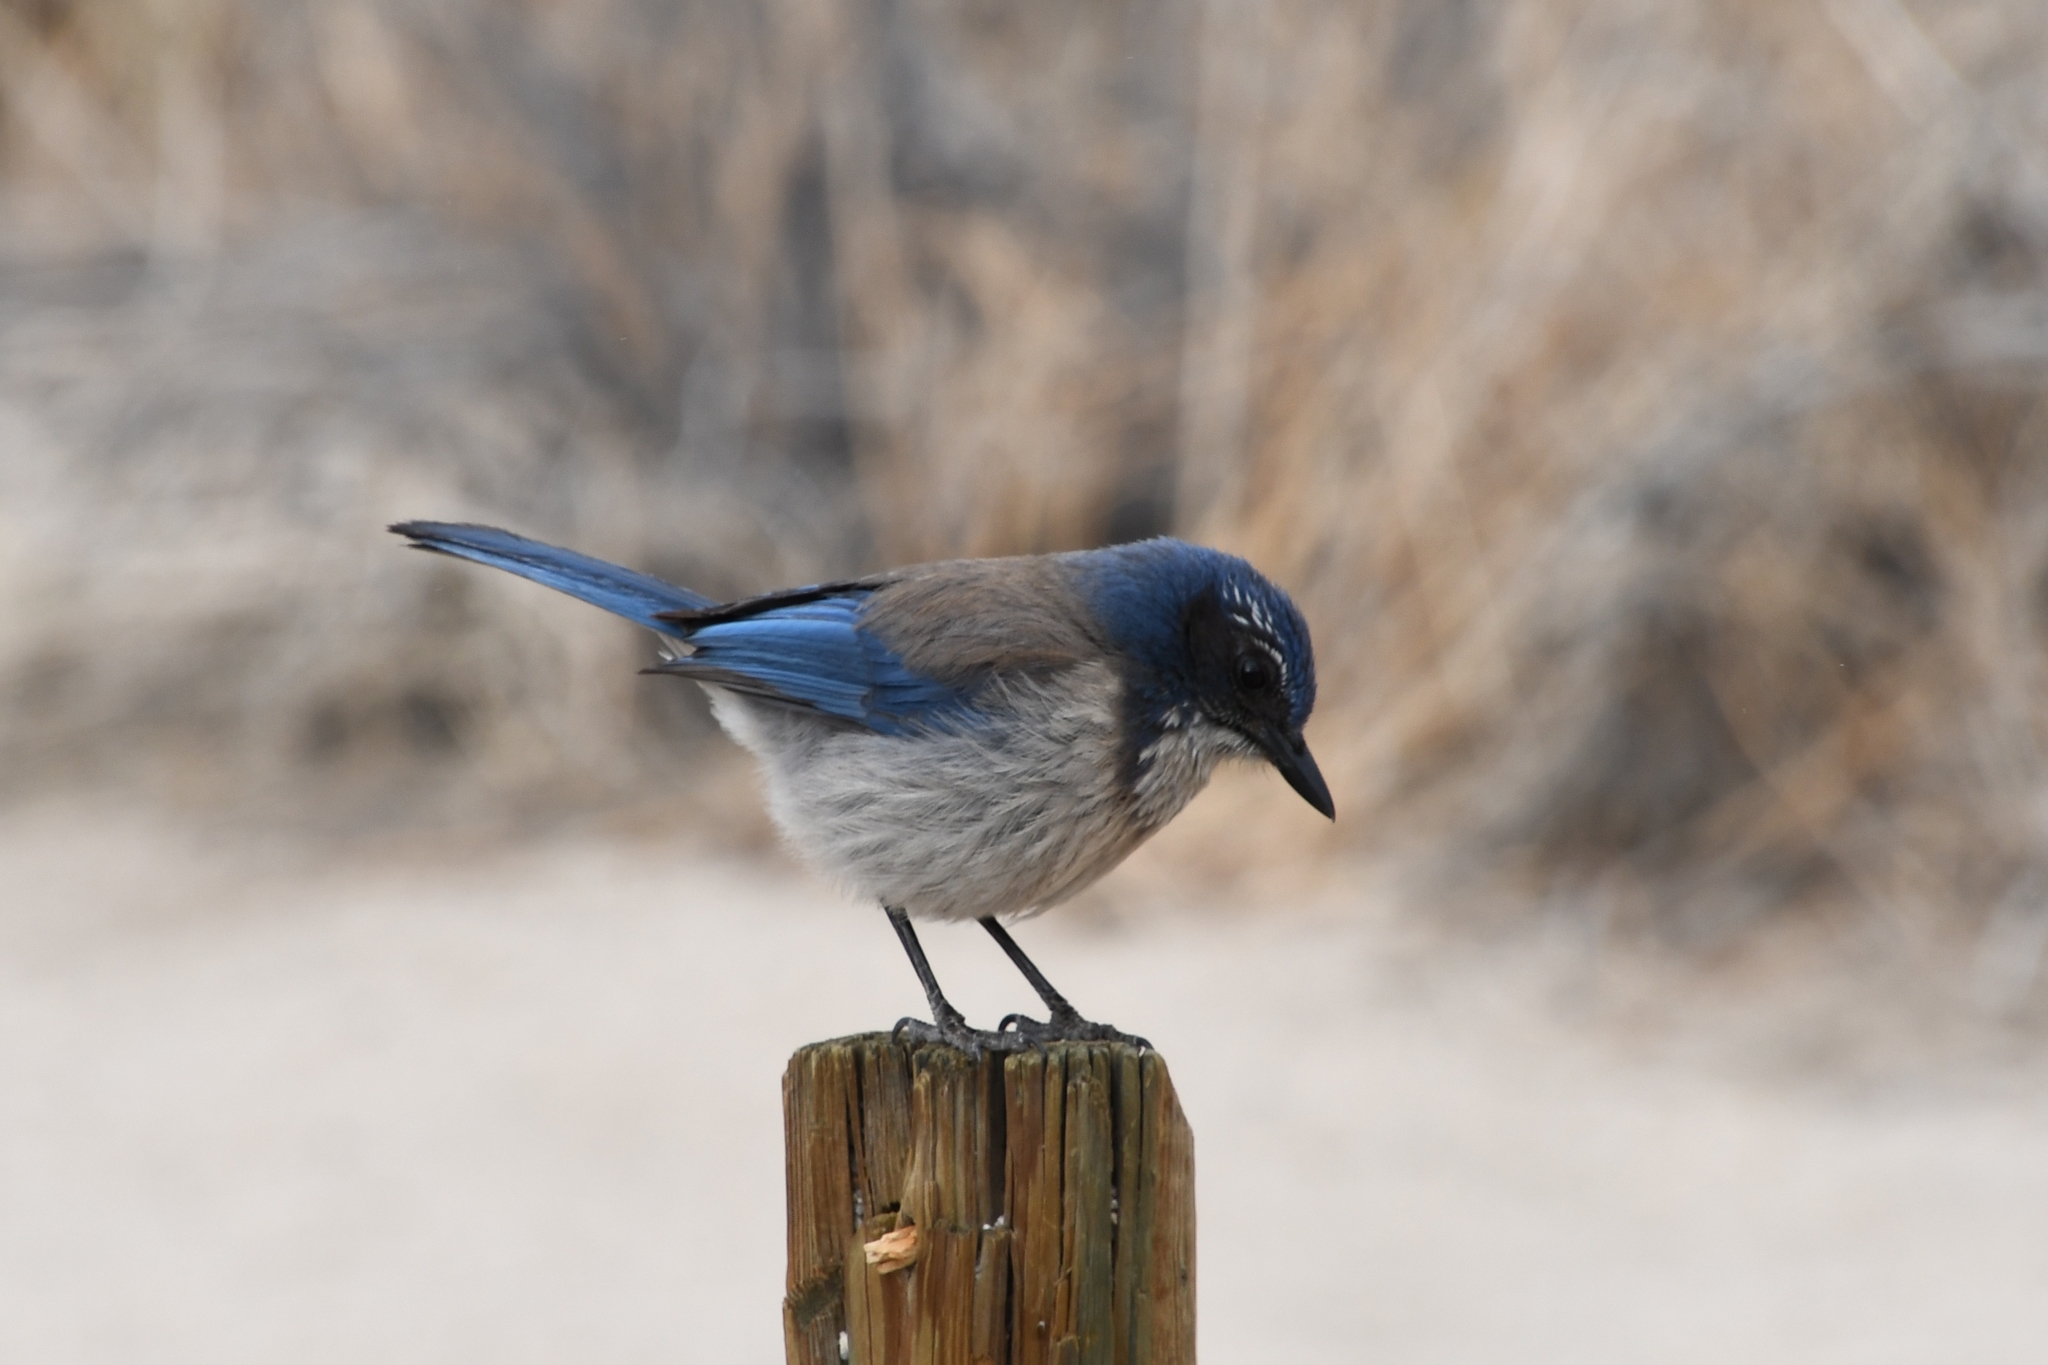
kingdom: Animalia
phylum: Chordata
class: Aves
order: Passeriformes
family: Corvidae
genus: Aphelocoma
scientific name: Aphelocoma californica
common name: California scrub-jay
